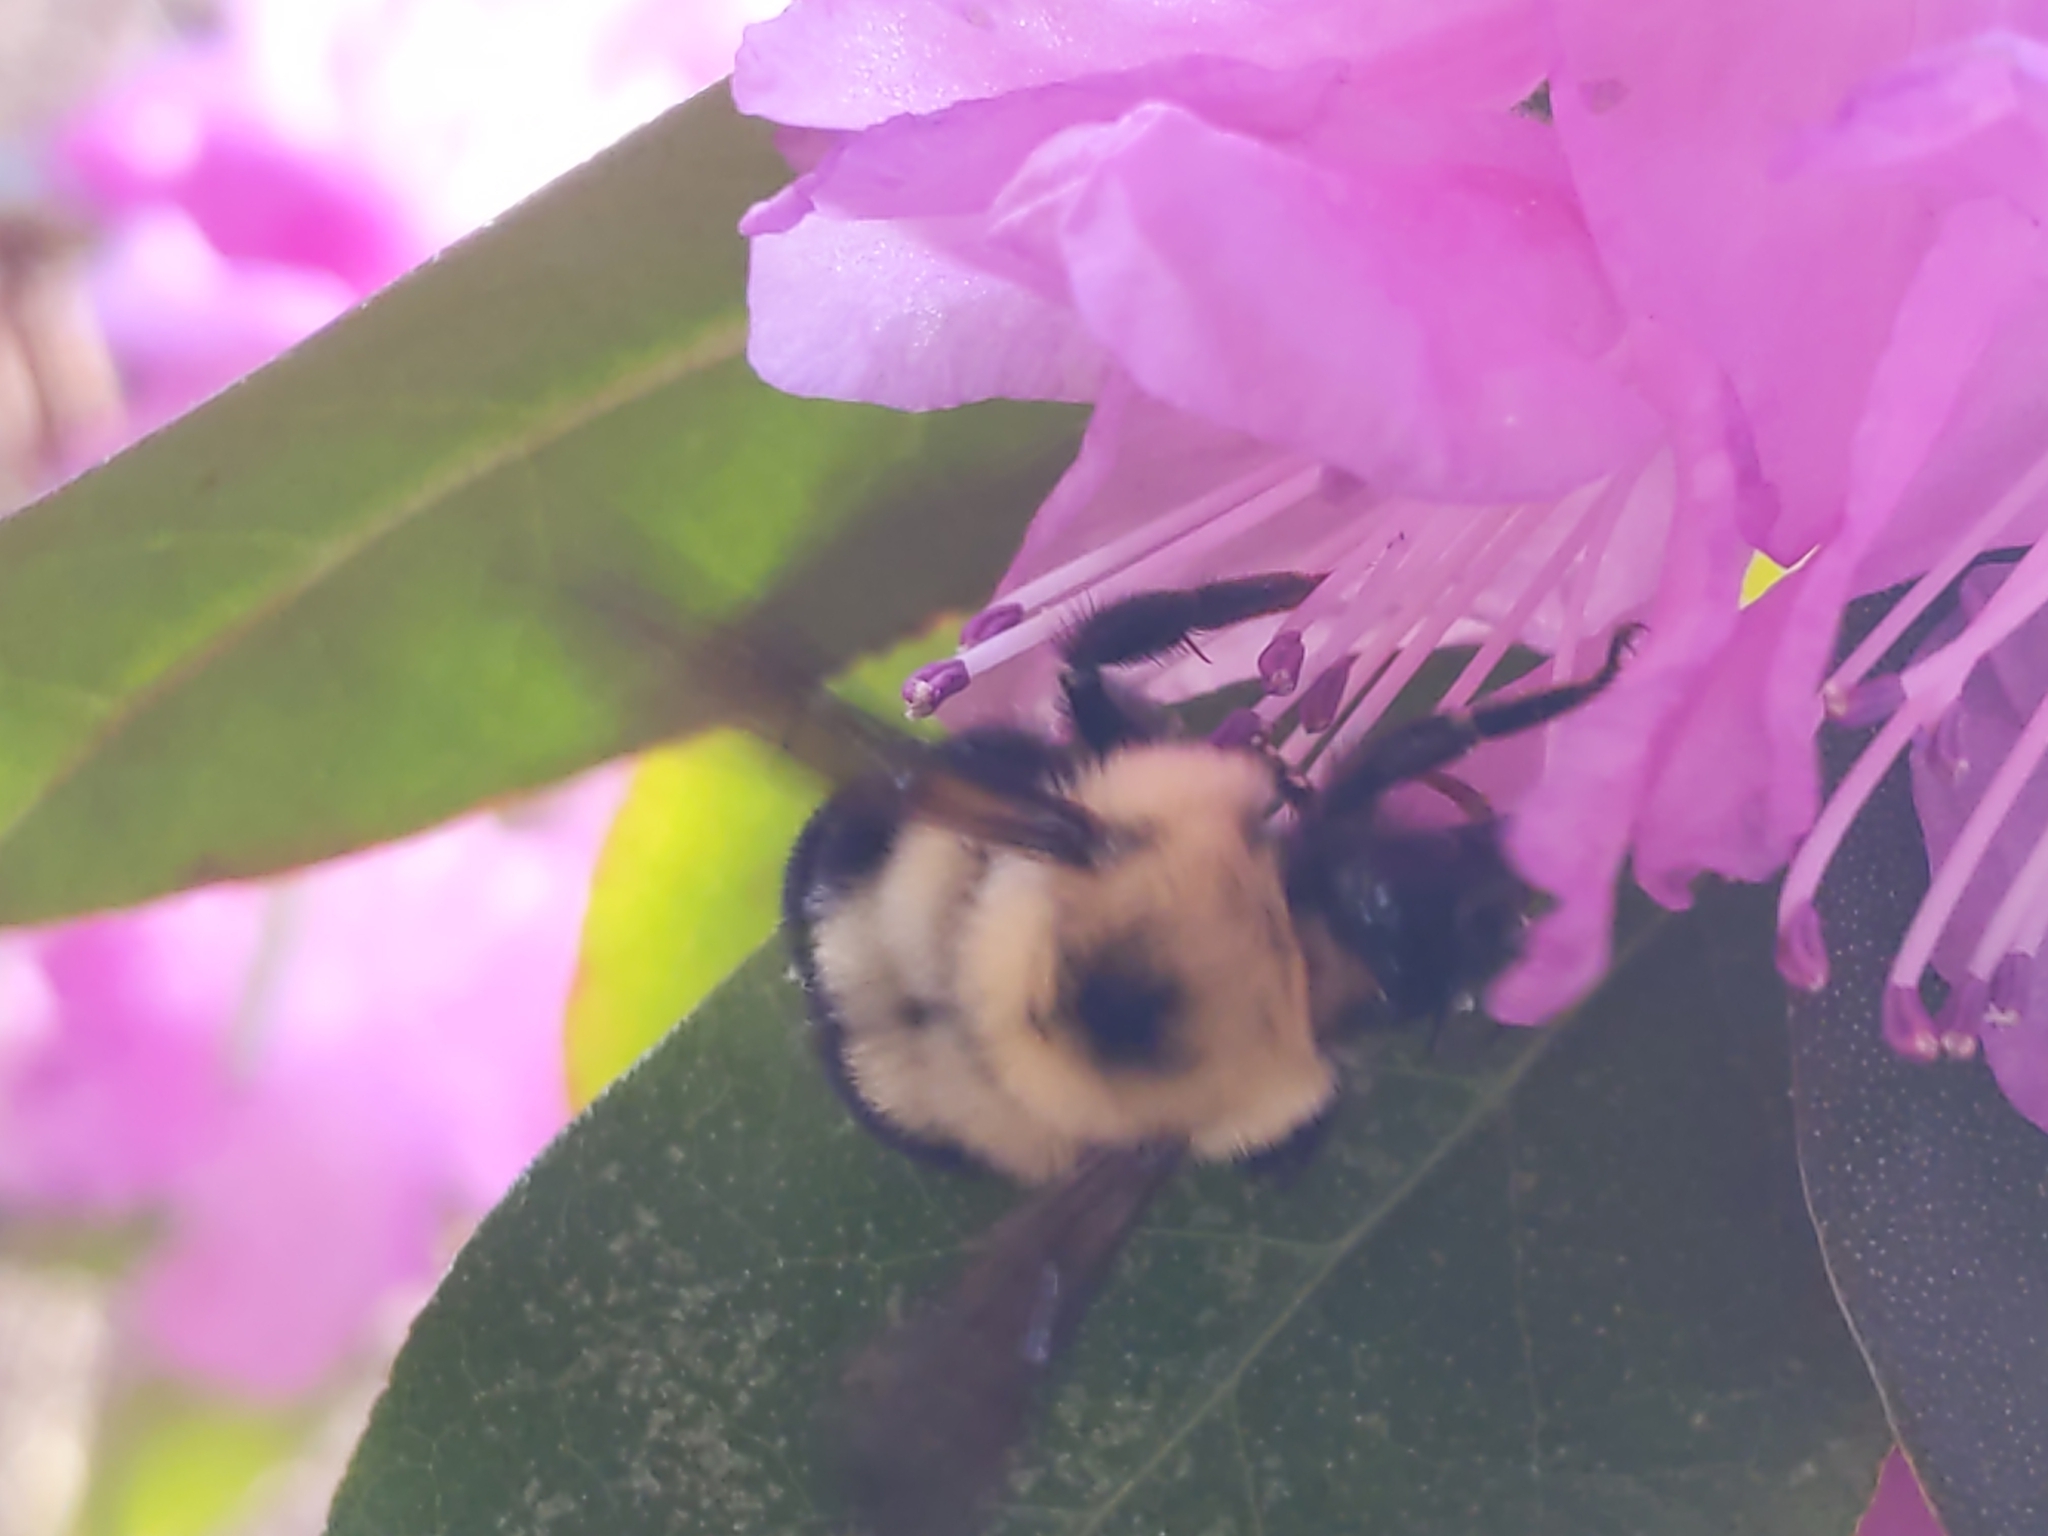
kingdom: Animalia
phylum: Arthropoda
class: Insecta
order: Hymenoptera
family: Apidae
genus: Bombus
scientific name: Bombus bimaculatus
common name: Two-spotted bumble bee
